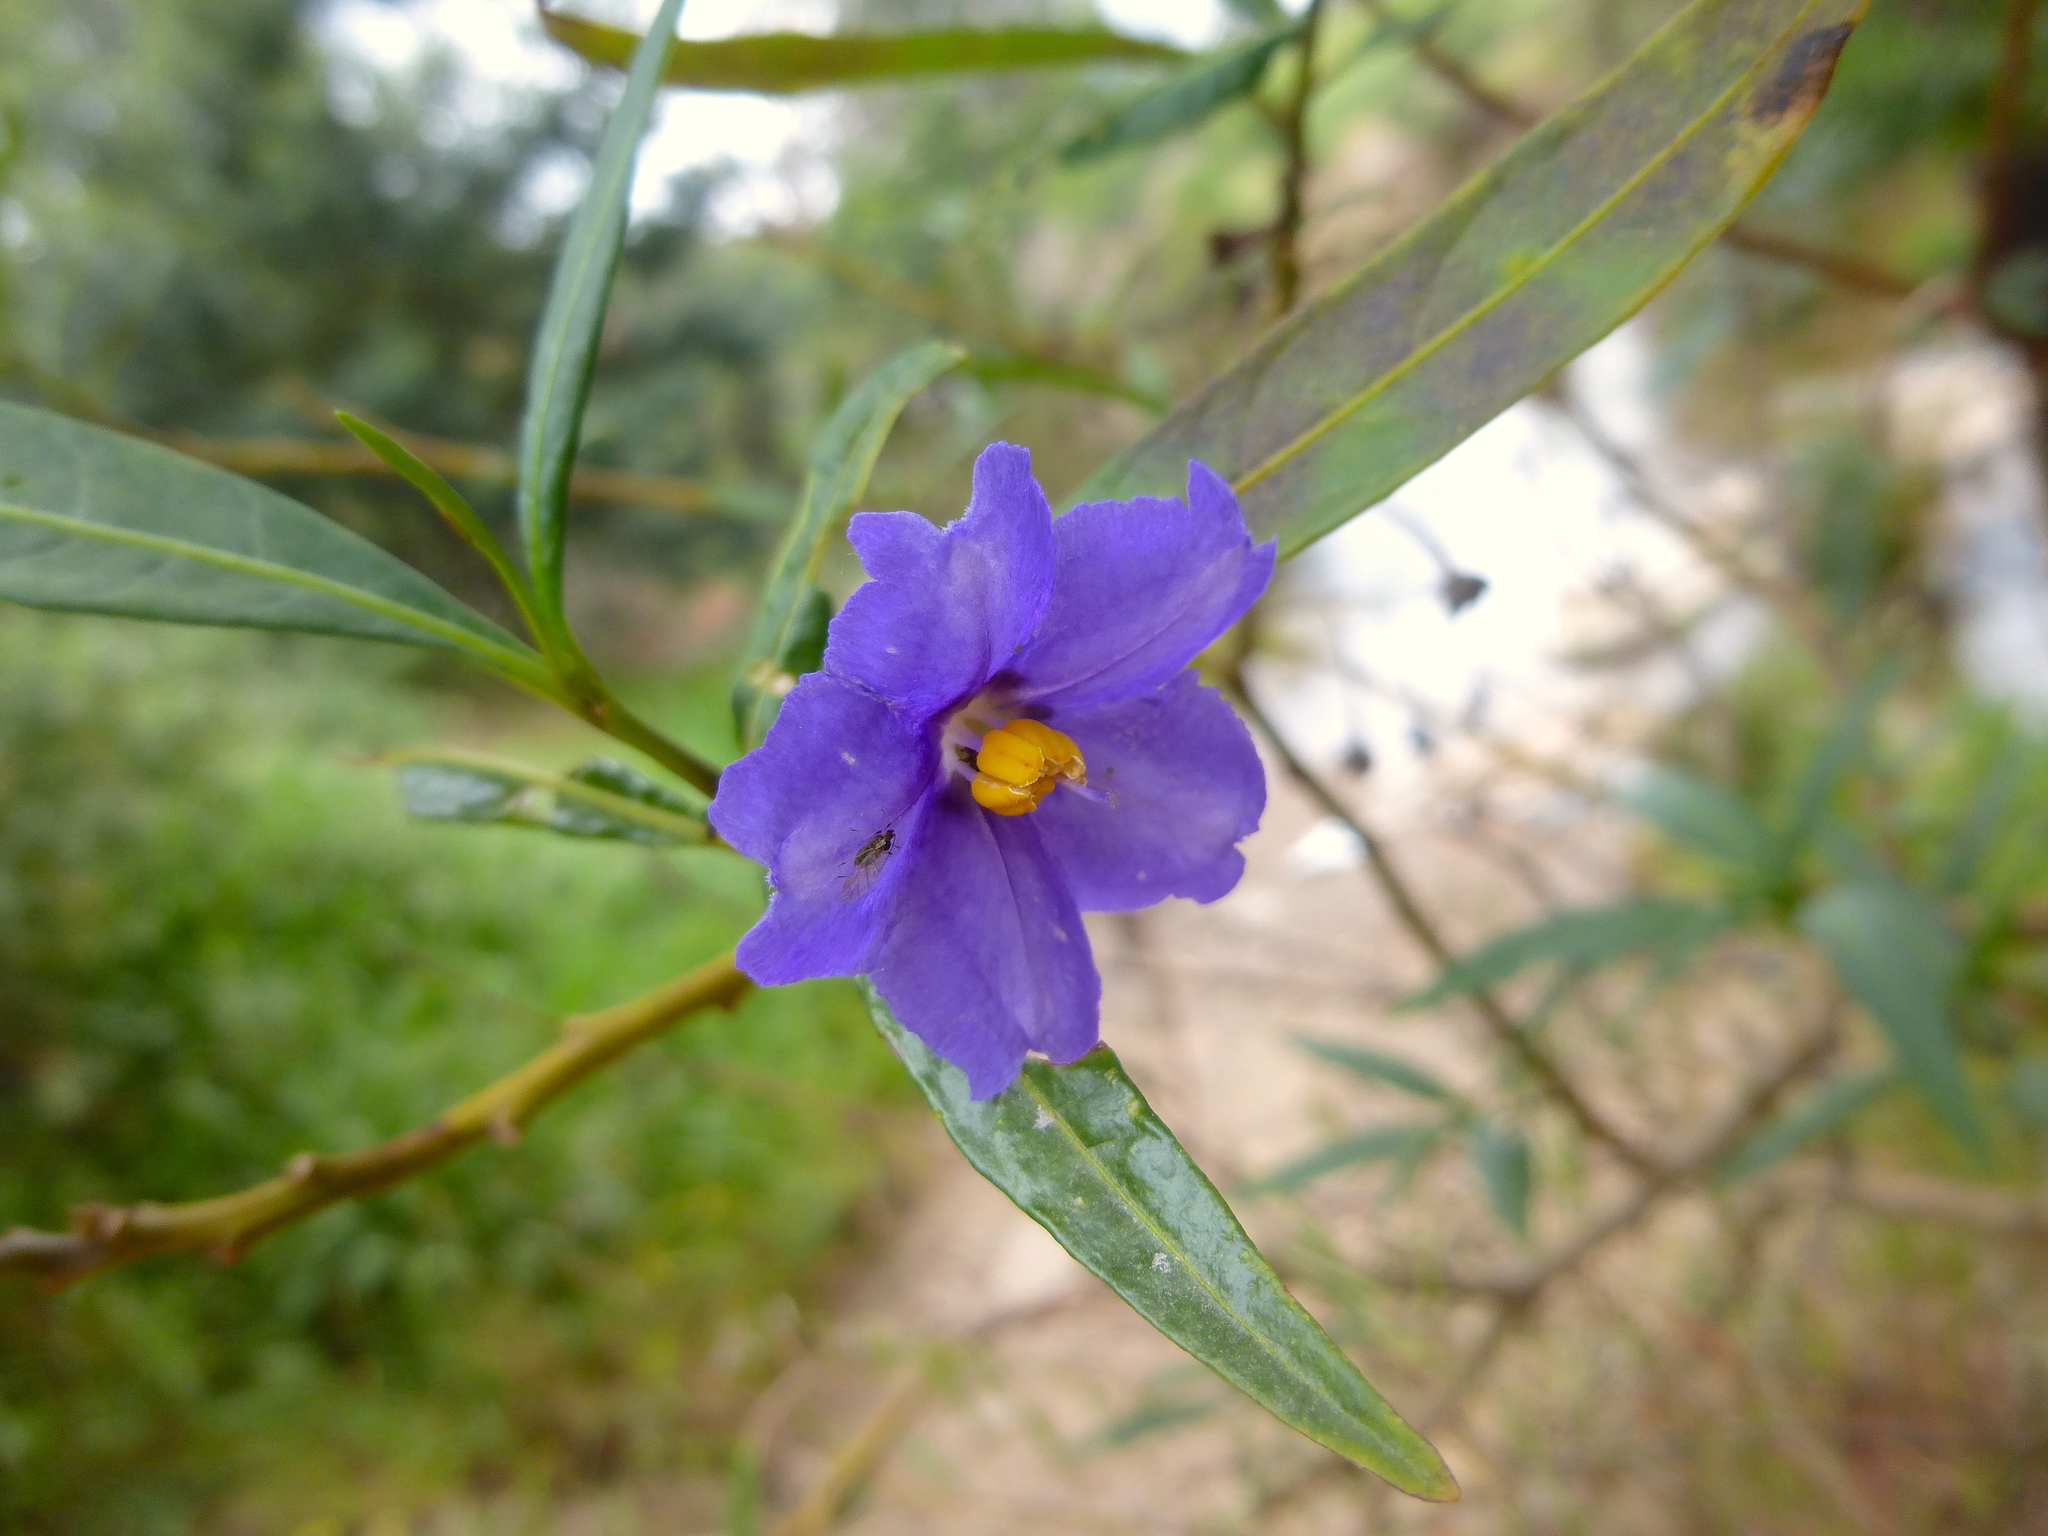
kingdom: Plantae
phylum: Tracheophyta
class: Magnoliopsida
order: Solanales
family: Solanaceae
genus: Solanum
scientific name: Solanum laciniatum
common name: Kangaroo-apple
